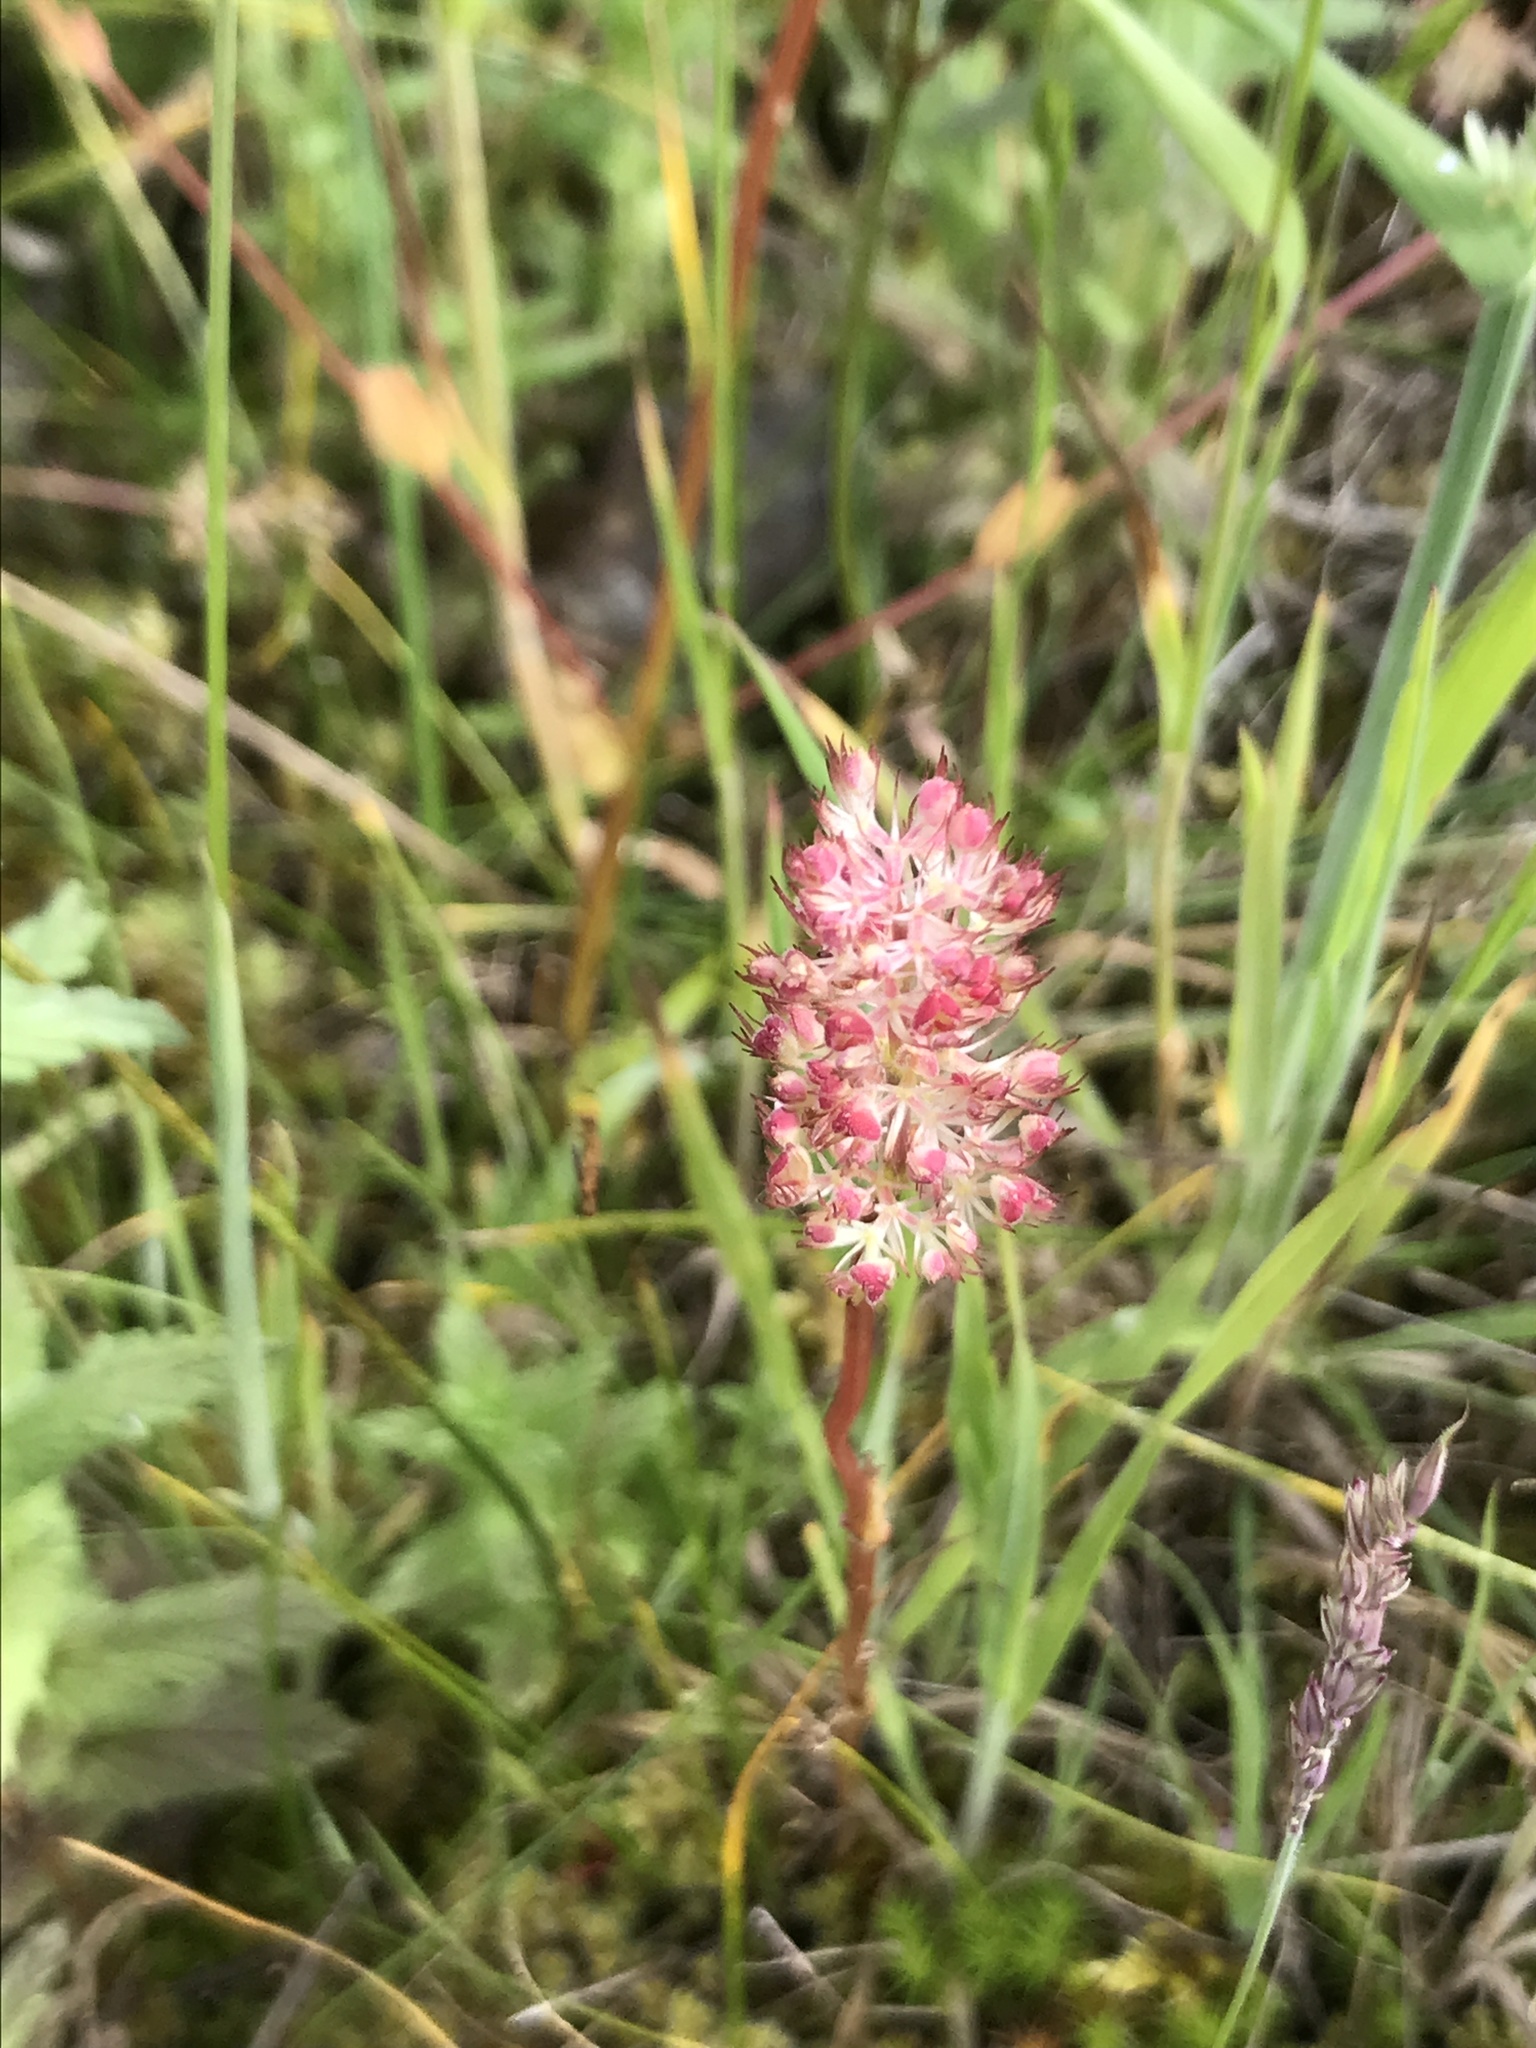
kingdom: Plantae
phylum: Tracheophyta
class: Magnoliopsida
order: Dipsacales
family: Caprifoliaceae
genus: Plectritis
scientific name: Plectritis congesta
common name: Pink plectritis
